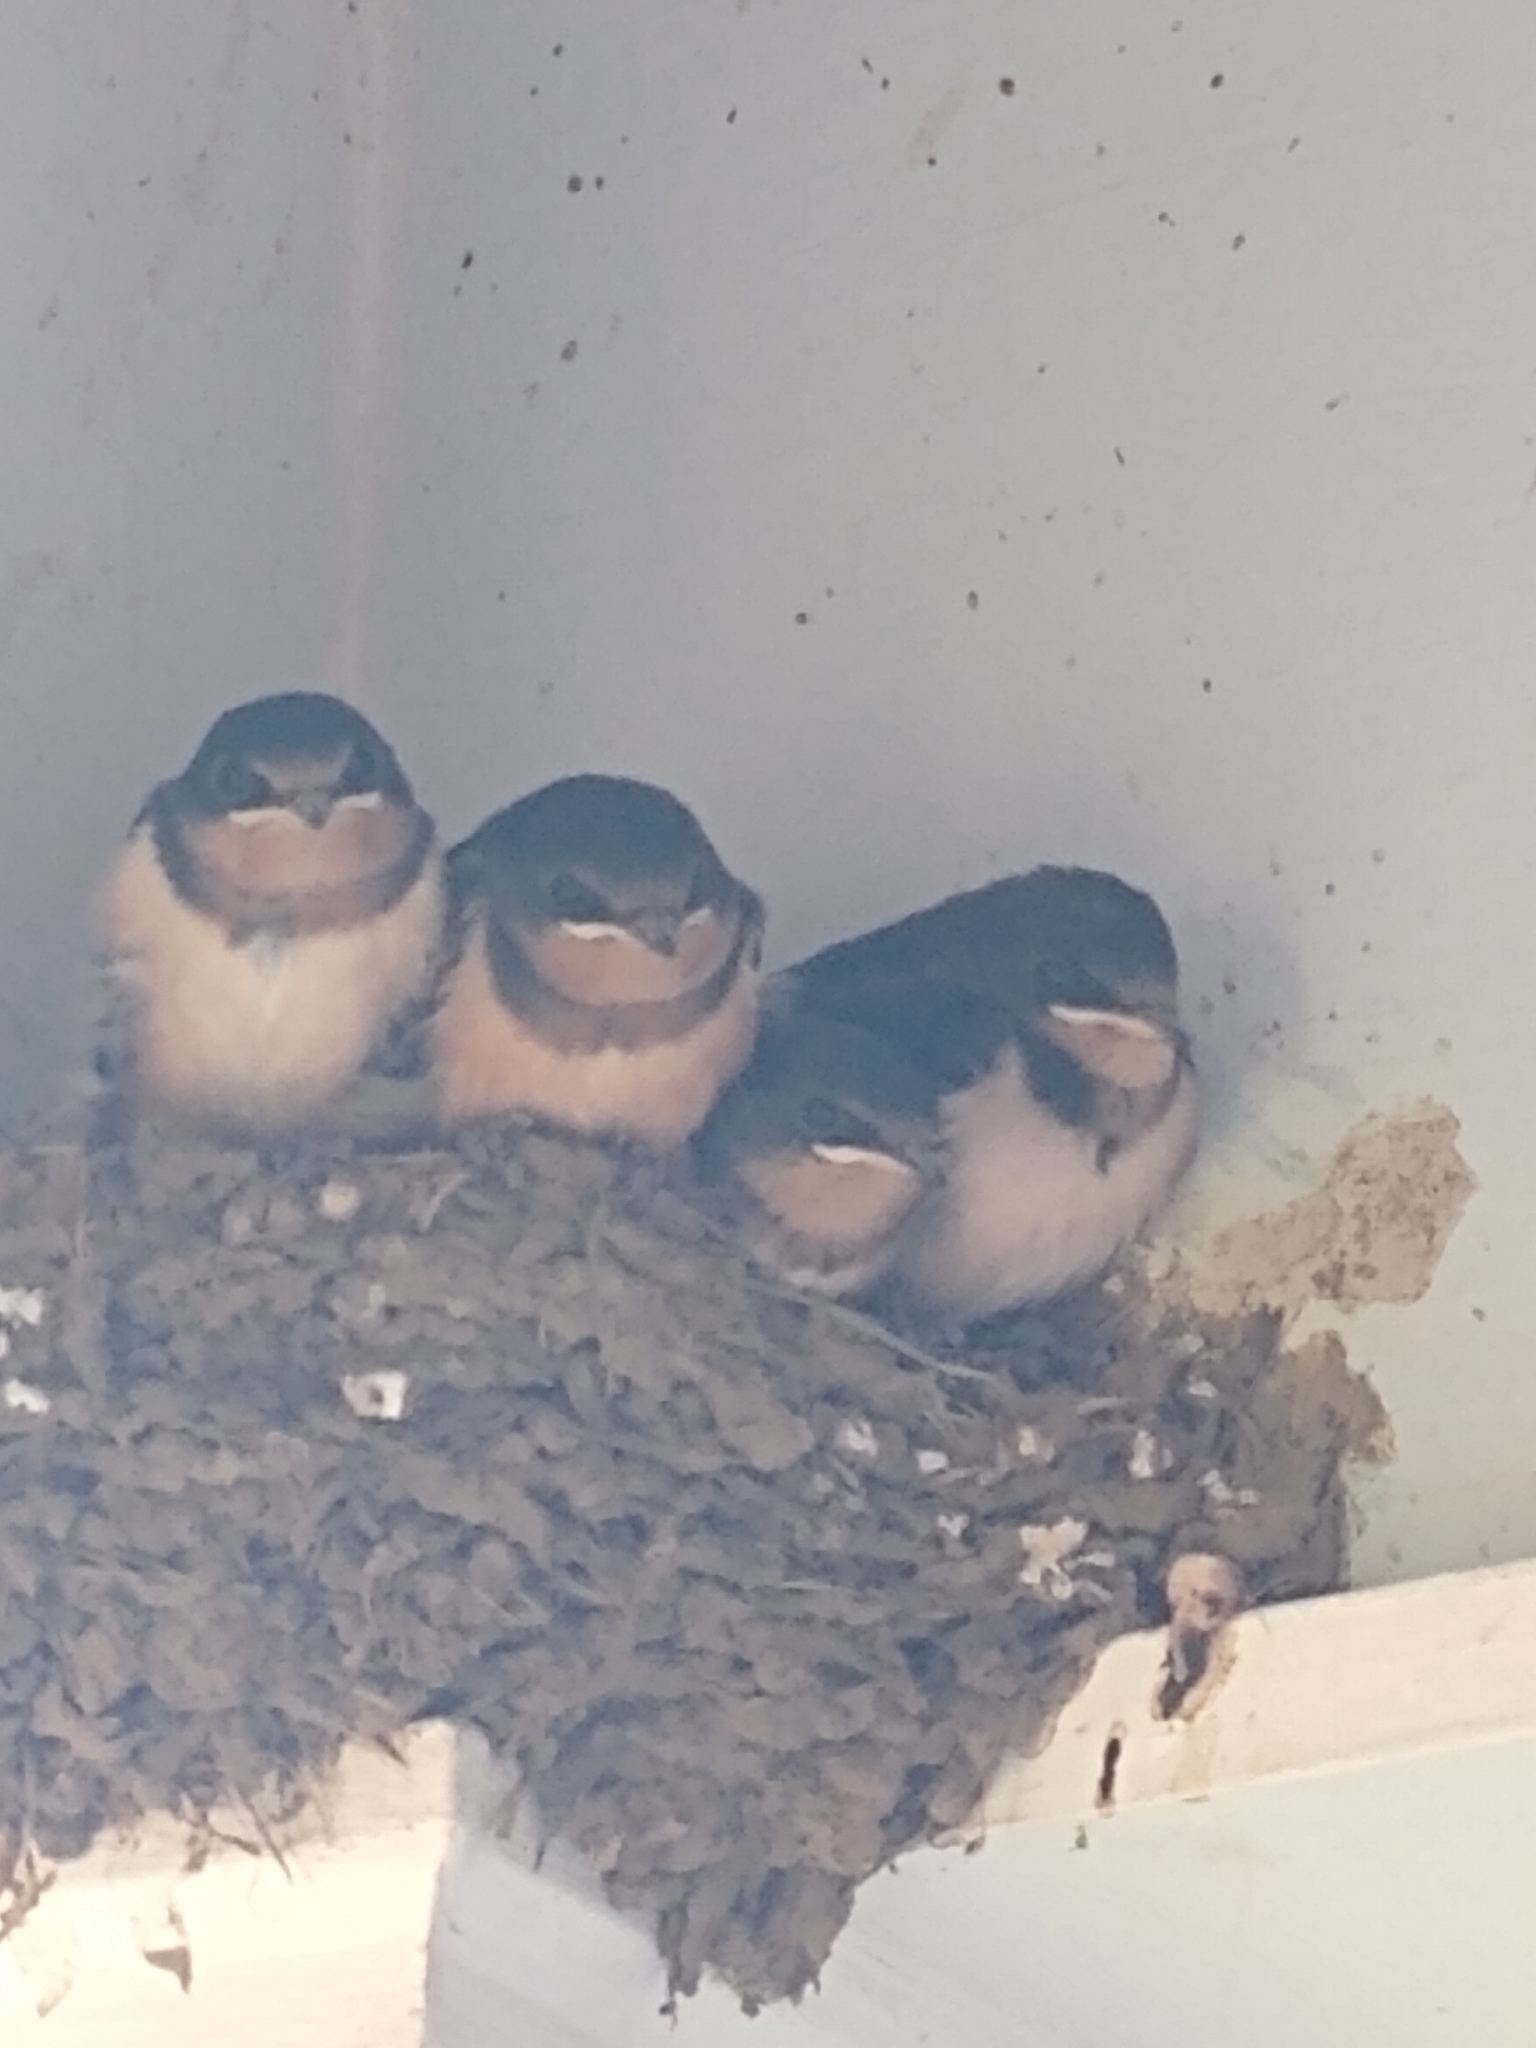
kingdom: Animalia
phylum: Chordata
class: Aves
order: Passeriformes
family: Hirundinidae
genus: Hirundo
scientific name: Hirundo rustica
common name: Barn swallow
